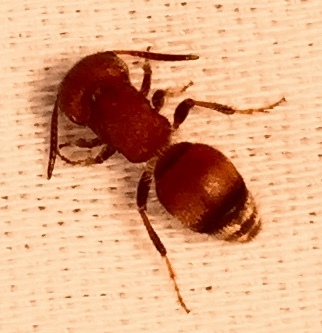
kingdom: Animalia
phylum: Arthropoda
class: Insecta
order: Hymenoptera
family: Mutillidae
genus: Pseudomethoca
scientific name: Pseudomethoca
